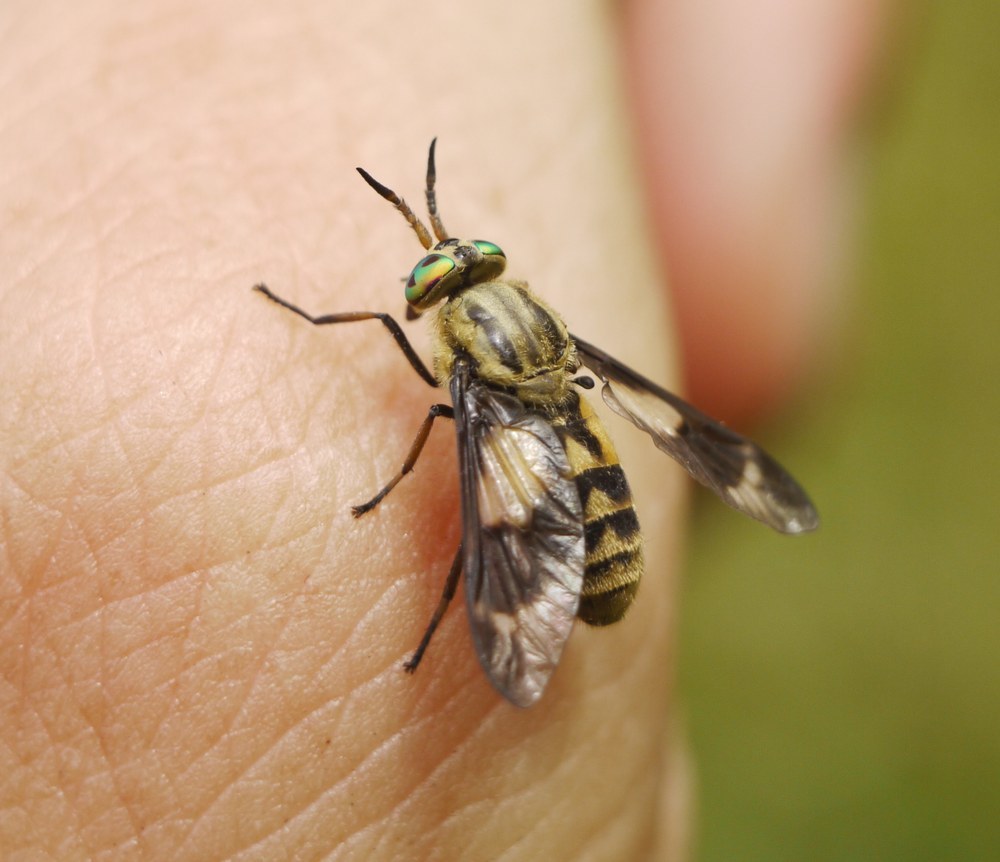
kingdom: Animalia
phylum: Arthropoda
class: Insecta
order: Diptera
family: Tabanidae
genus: Chrysops
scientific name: Chrysops relictus
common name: Twin-lobed deerfly
